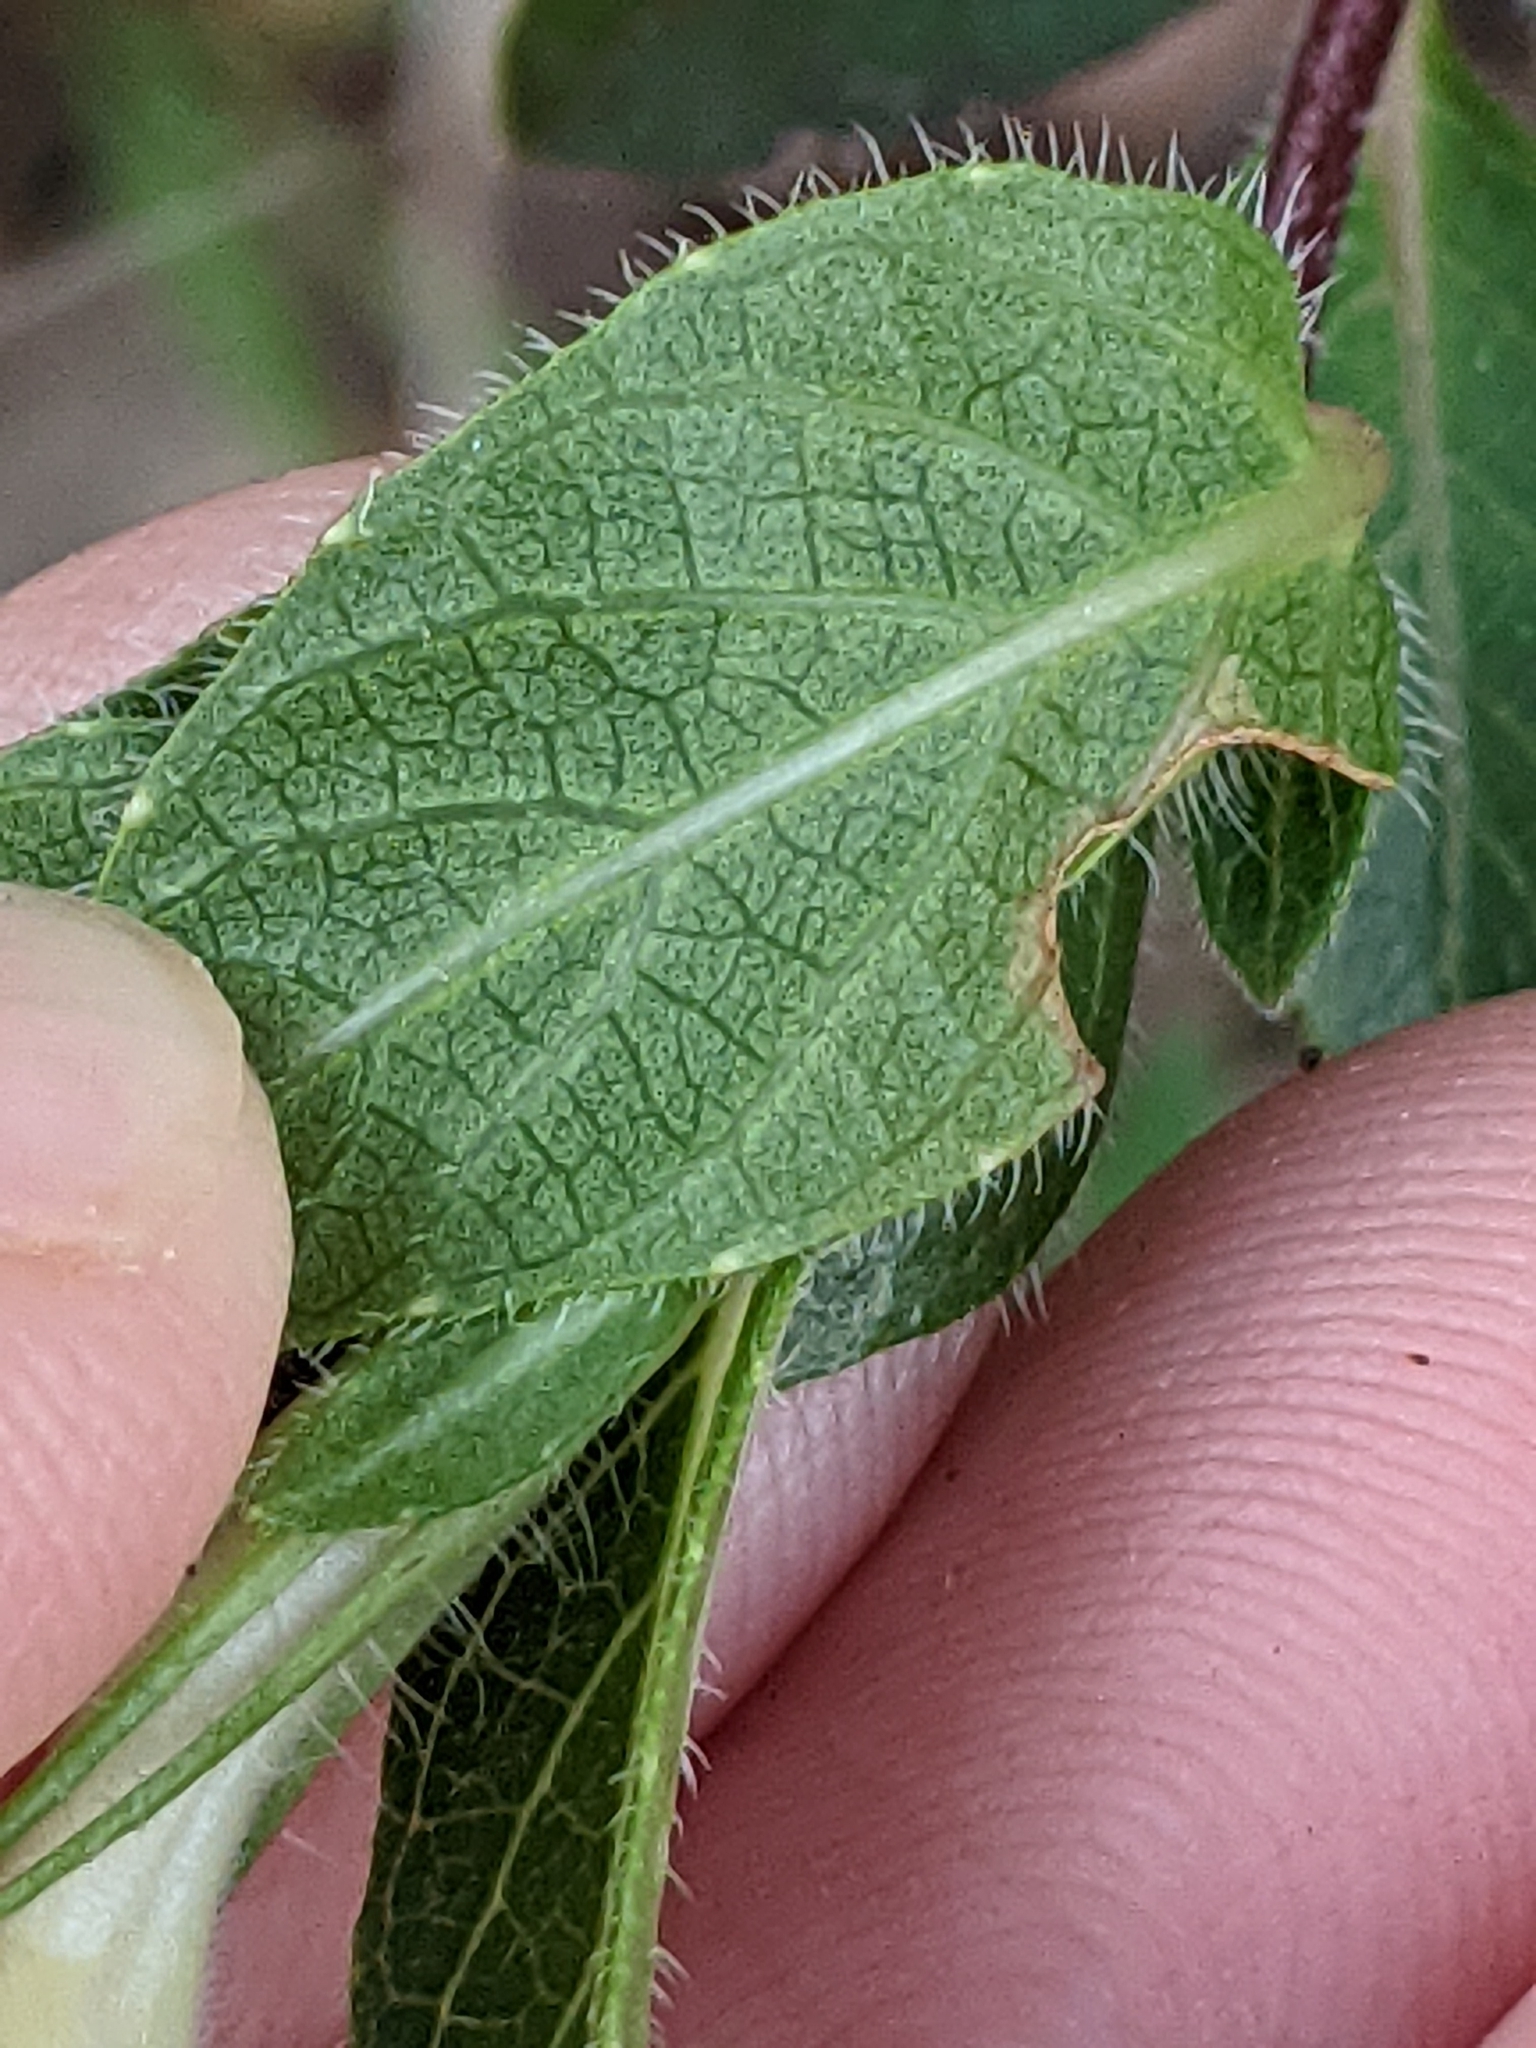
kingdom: Plantae
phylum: Tracheophyta
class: Magnoliopsida
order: Lamiales
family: Acanthaceae
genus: Ruellia
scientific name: Ruellia humilis
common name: Fringe-leaf ruellia
